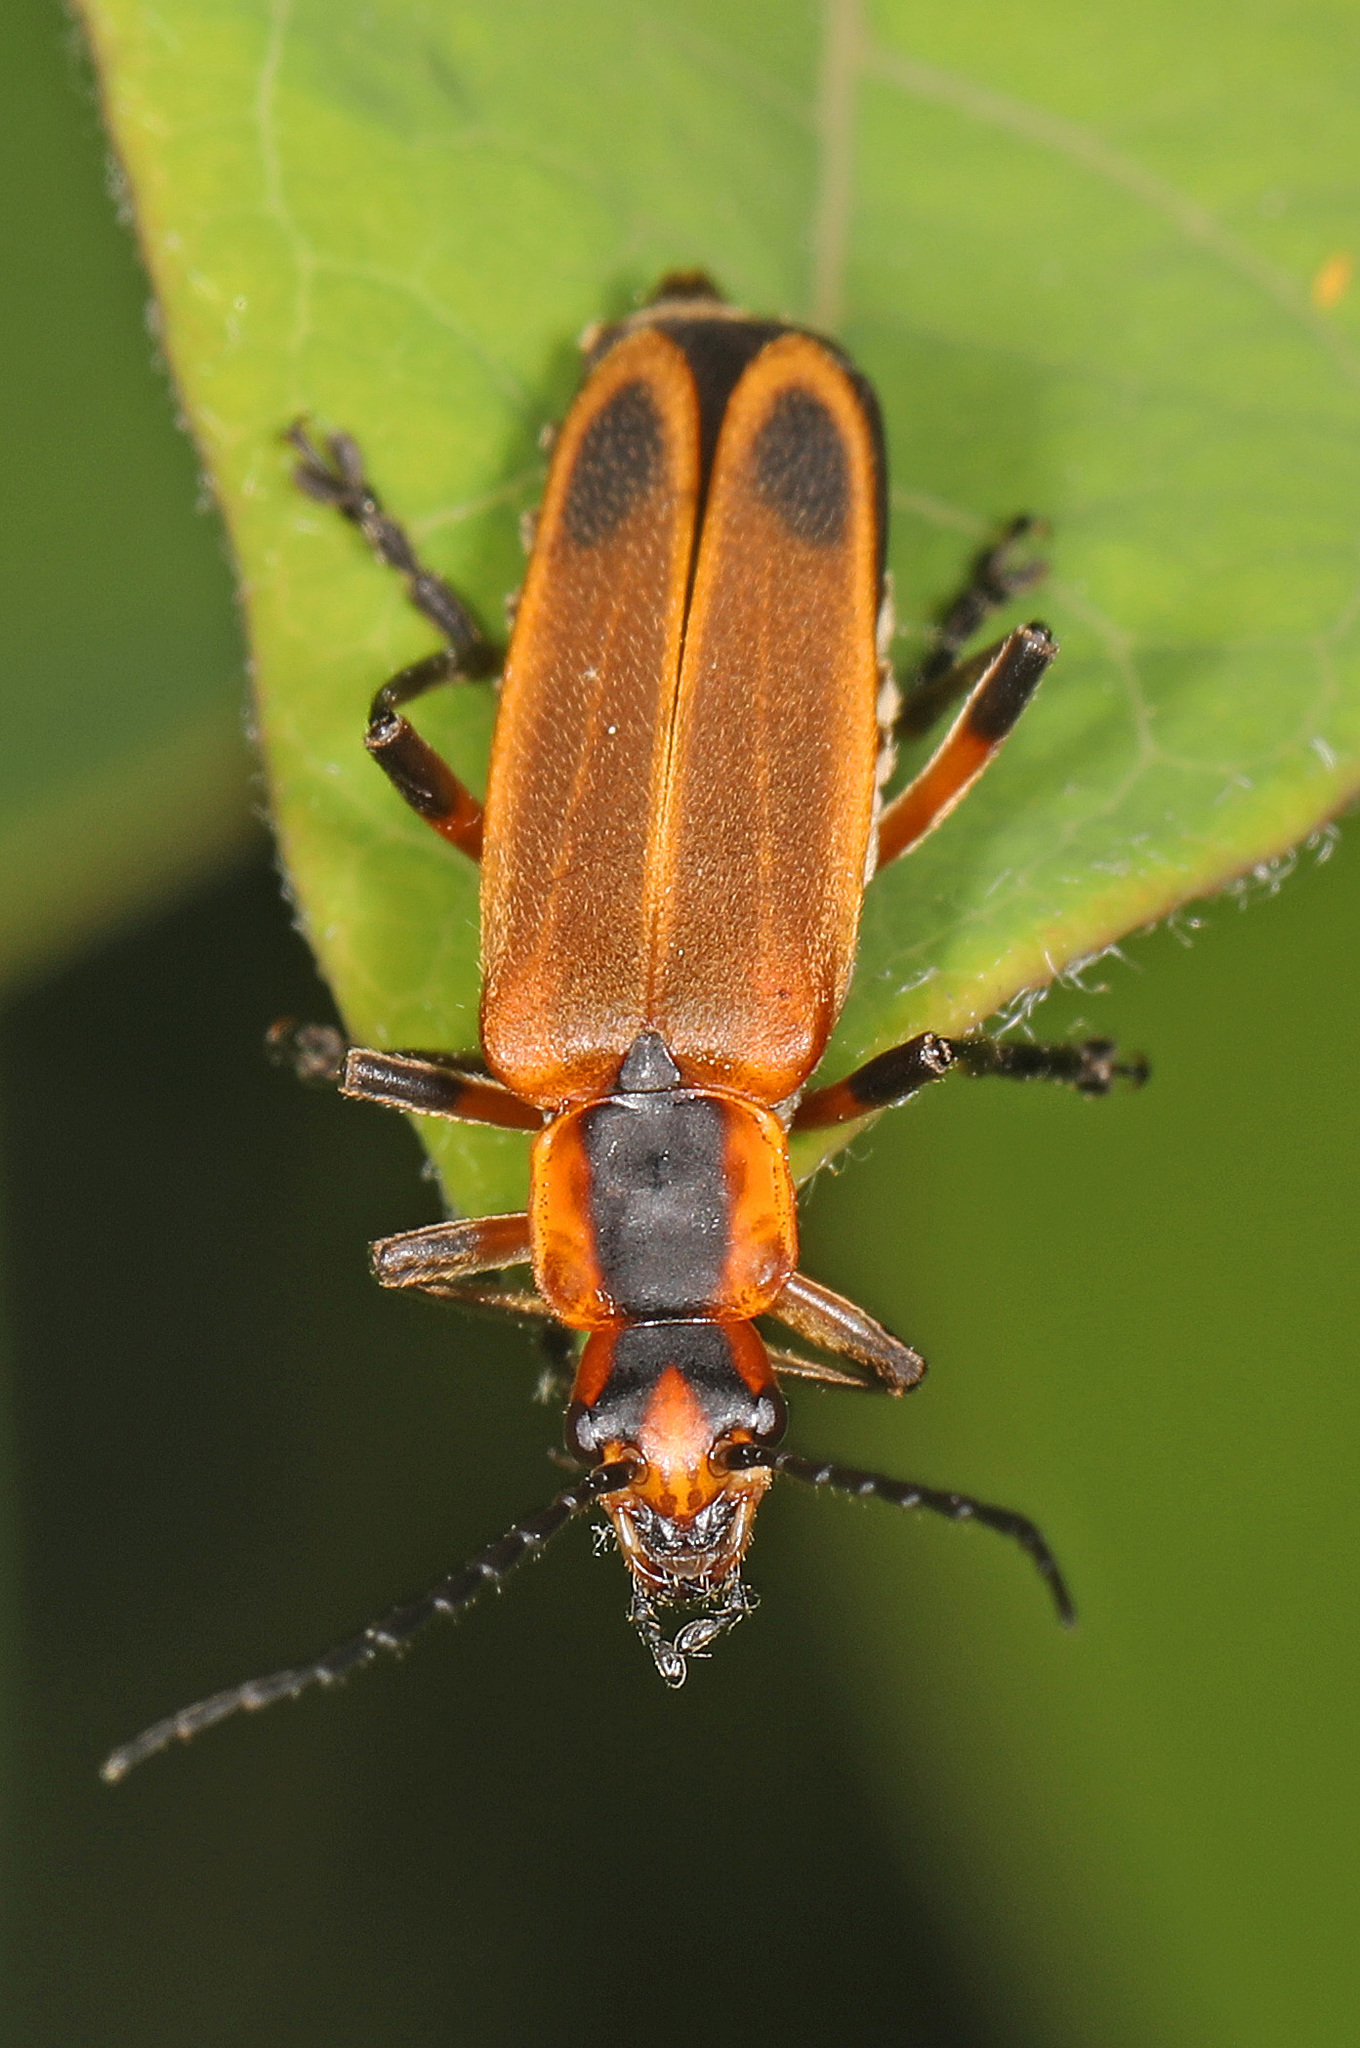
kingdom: Animalia
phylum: Arthropoda
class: Insecta
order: Coleoptera
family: Cantharidae
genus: Chauliognathus
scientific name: Chauliognathus marginatus
